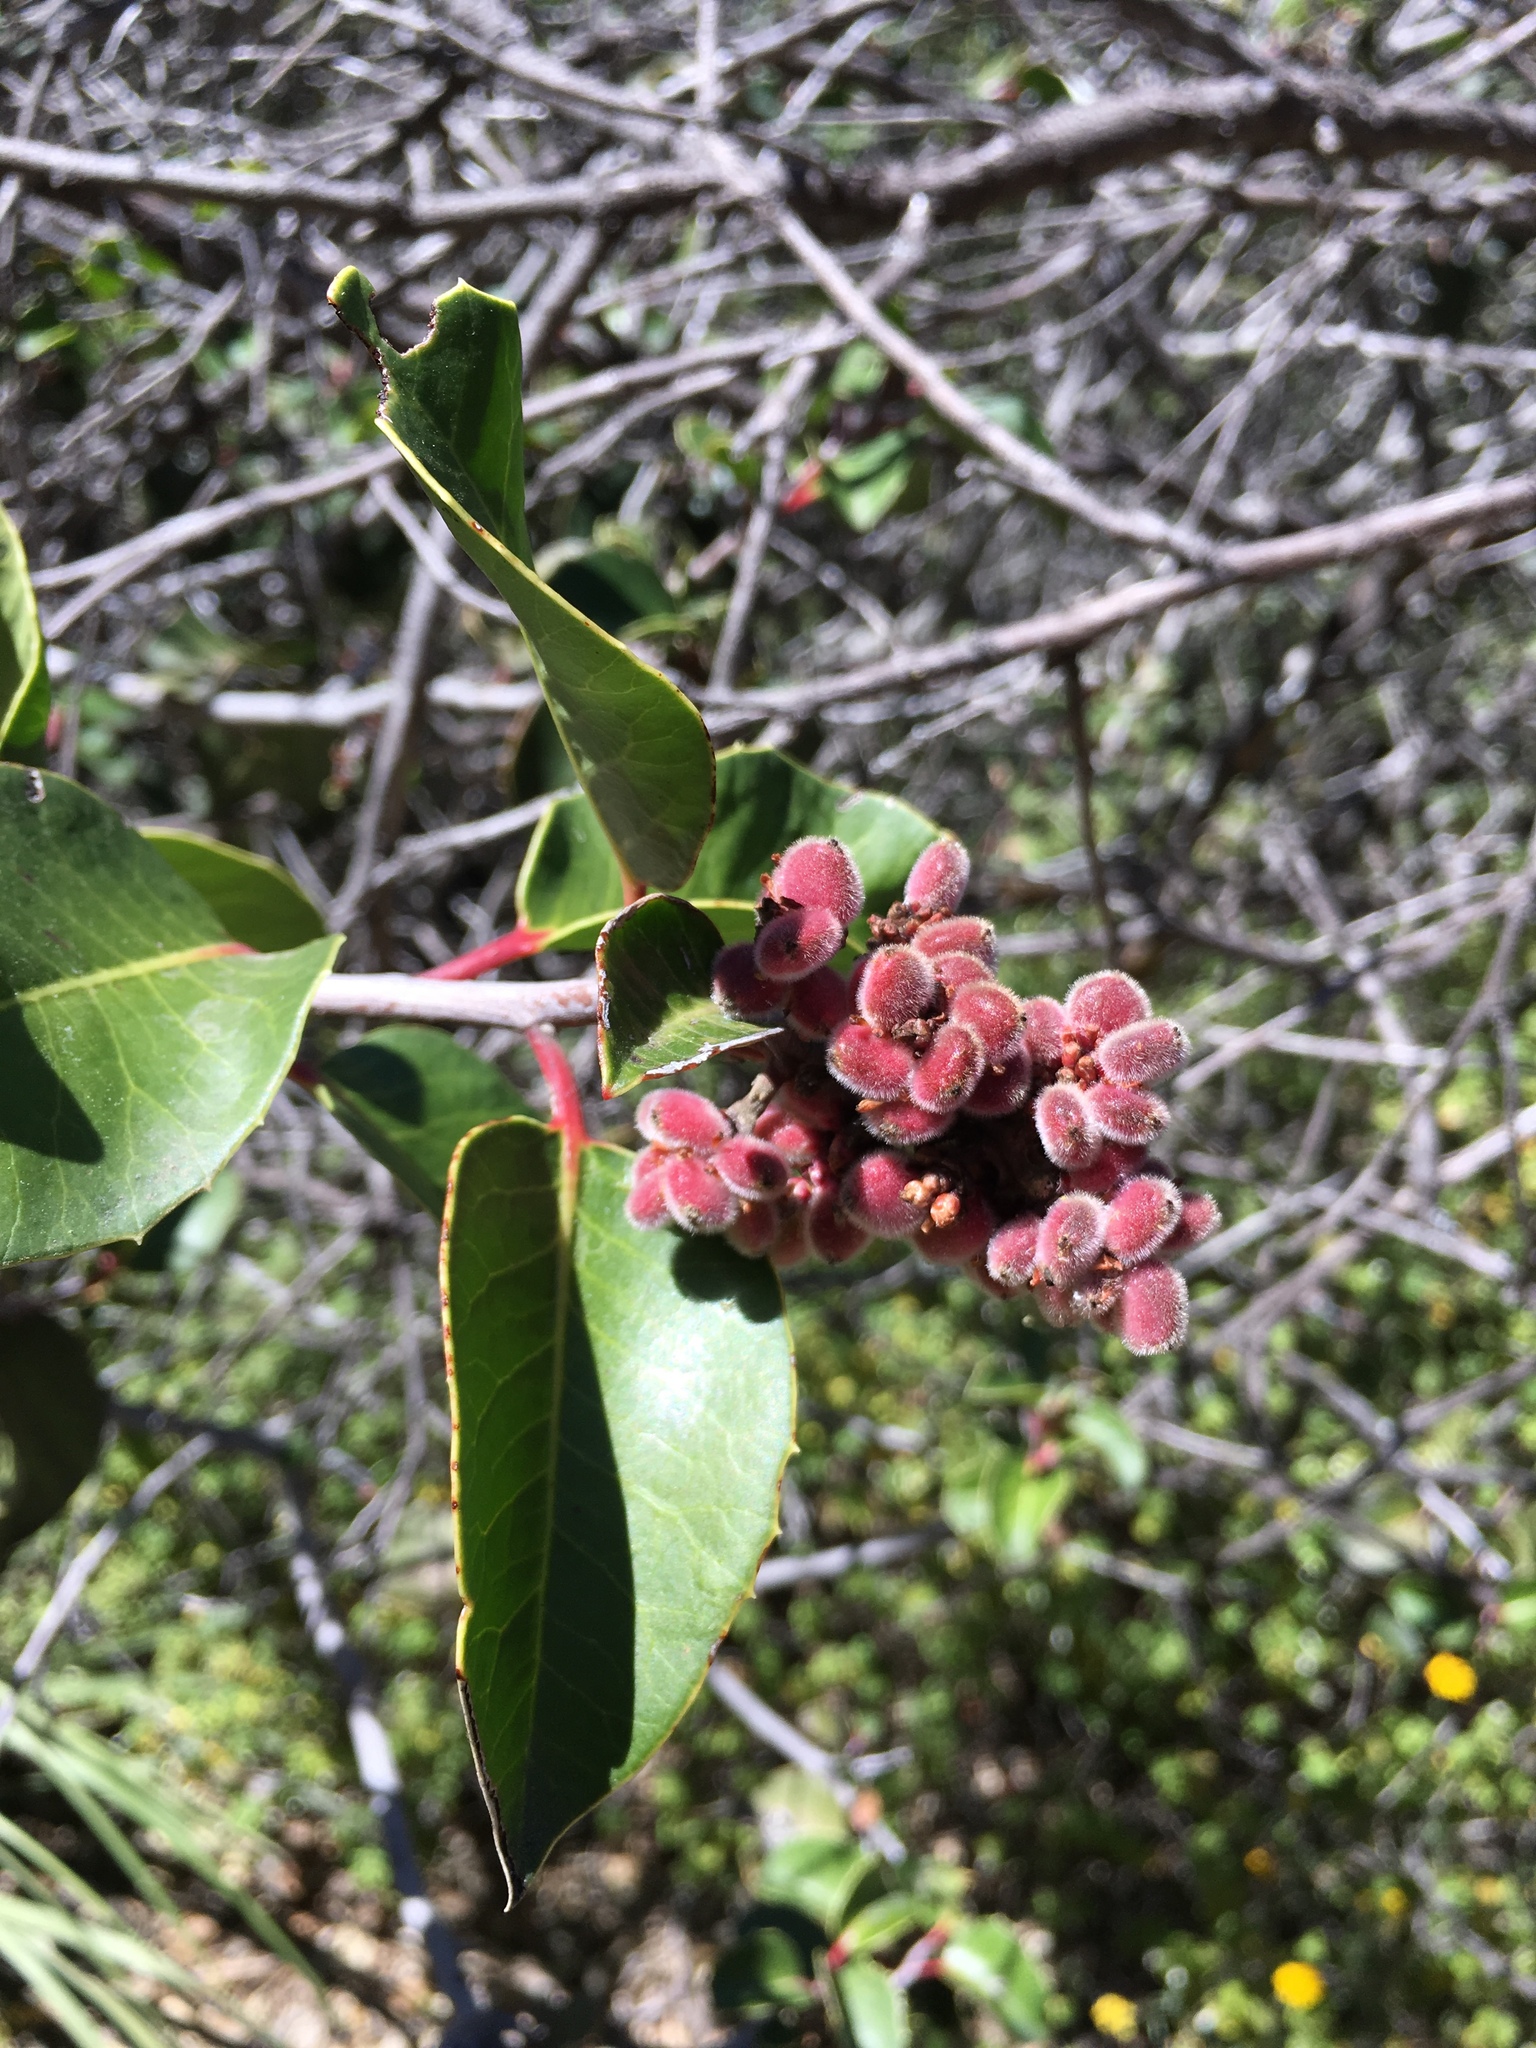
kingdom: Plantae
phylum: Tracheophyta
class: Magnoliopsida
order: Sapindales
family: Anacardiaceae
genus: Rhus
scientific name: Rhus
